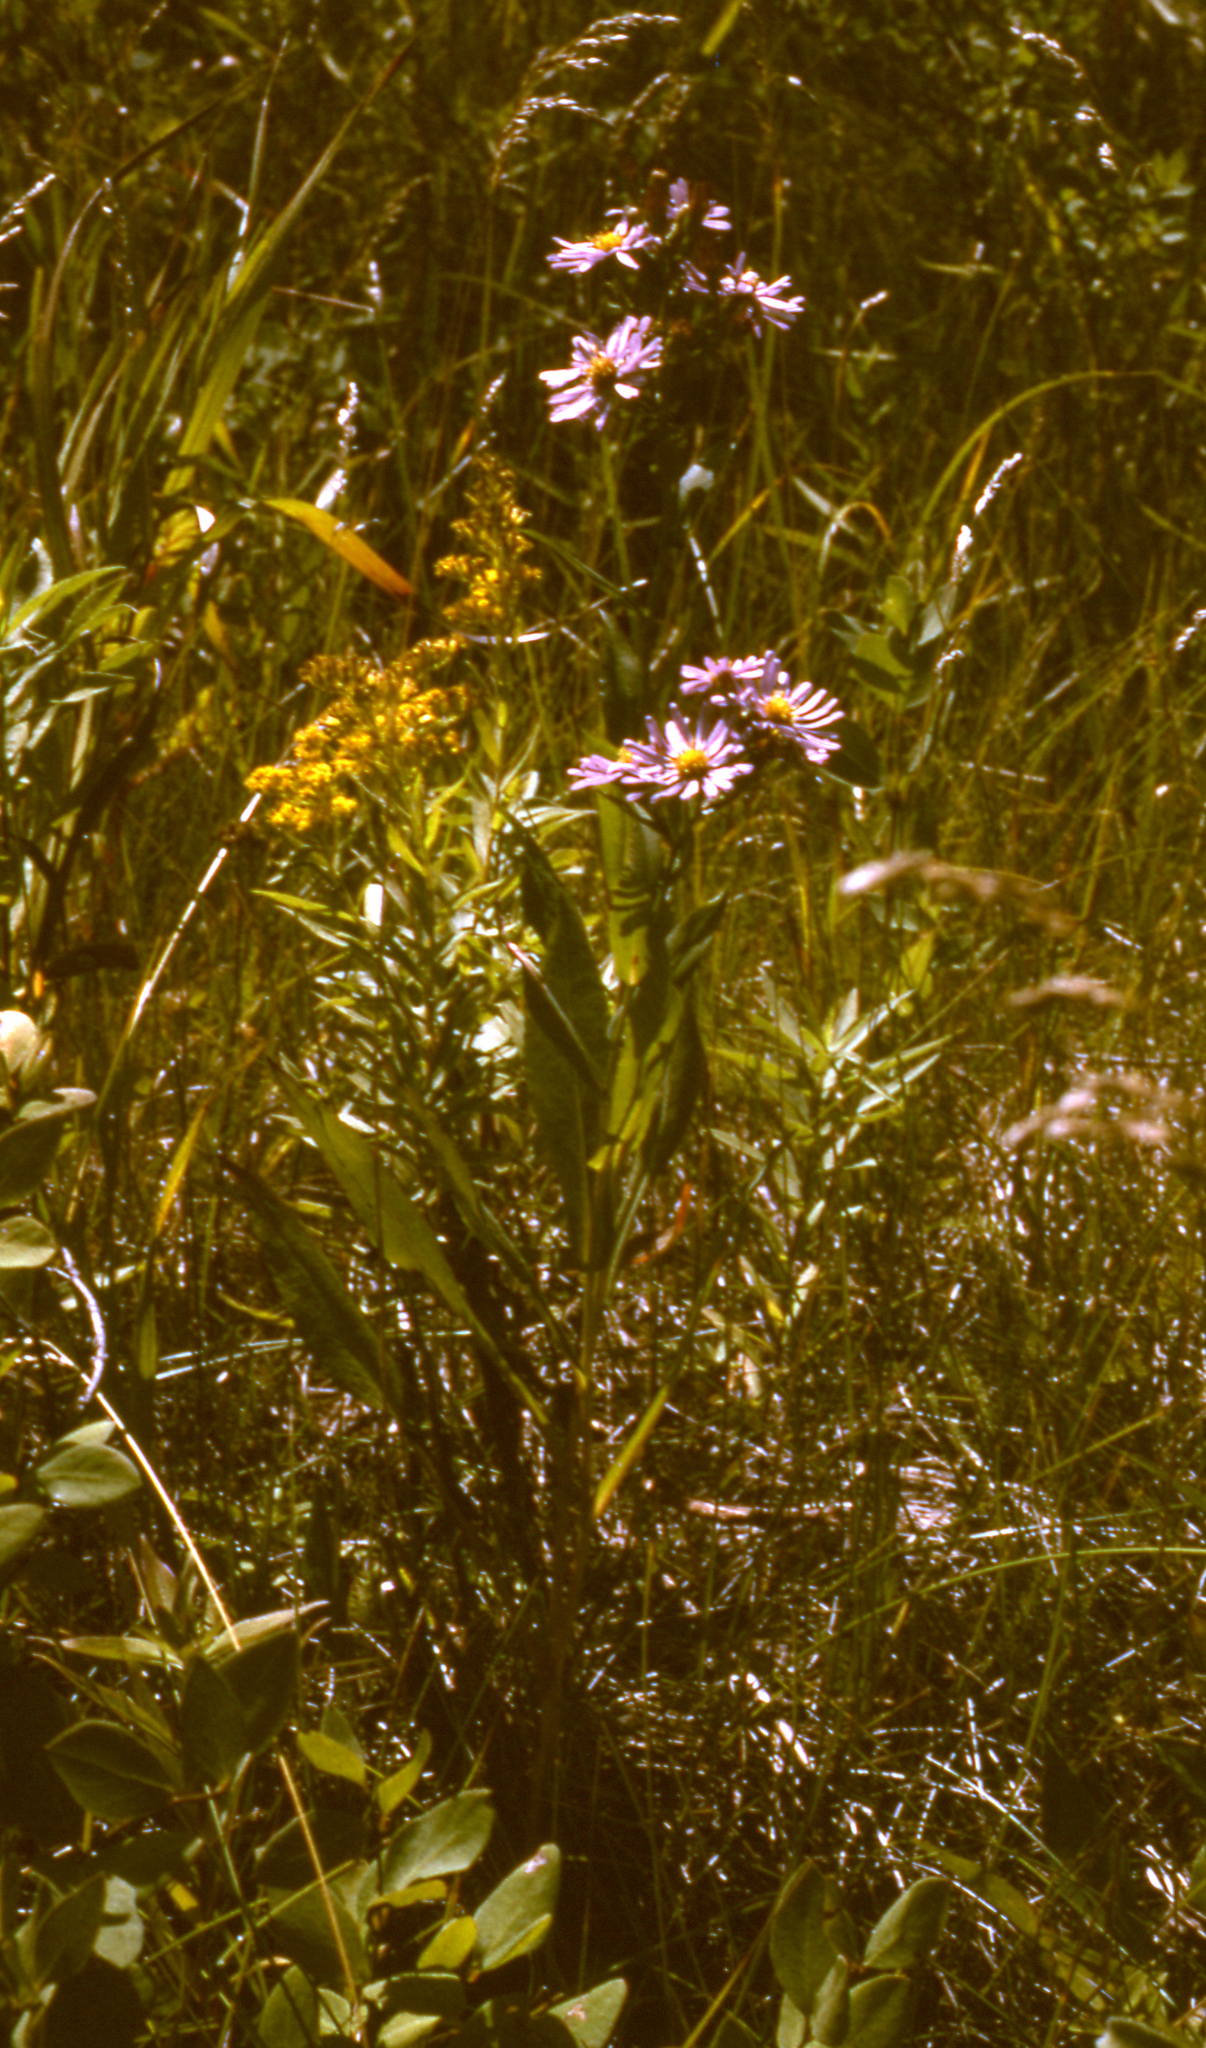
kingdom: Plantae
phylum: Tracheophyta
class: Magnoliopsida
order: Asterales
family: Asteraceae
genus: Symphyotrichum
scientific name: Symphyotrichum laeve
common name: Glaucous aster
